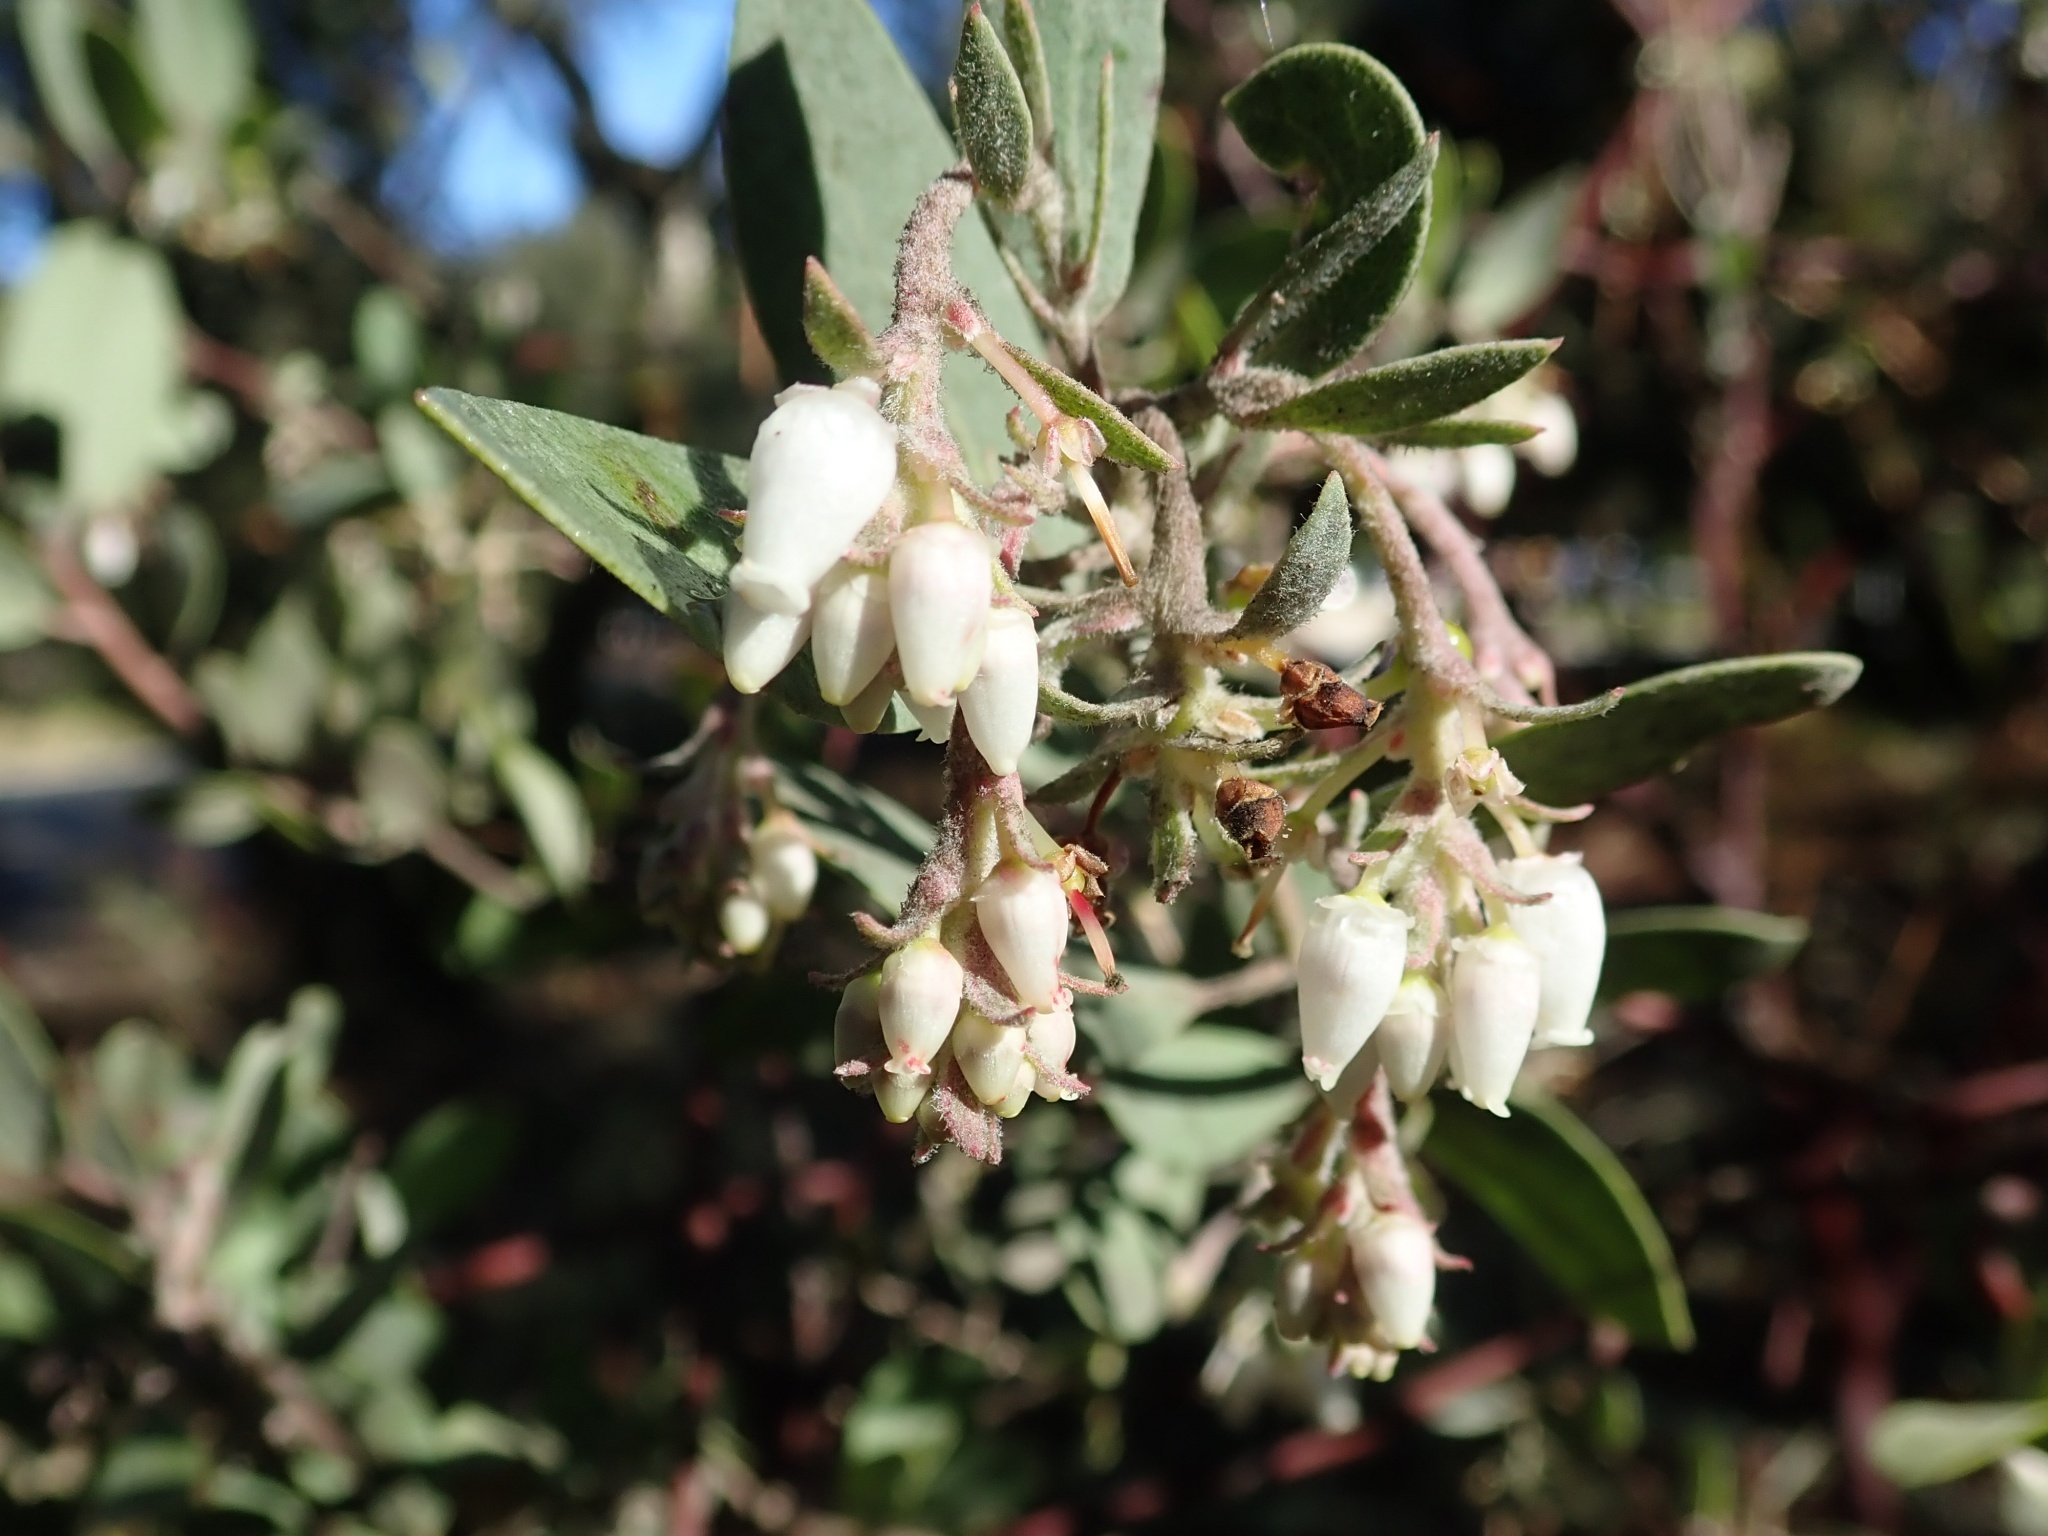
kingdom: Plantae
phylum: Tracheophyta
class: Magnoliopsida
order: Ericales
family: Ericaceae
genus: Arctostaphylos
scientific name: Arctostaphylos silvicola
